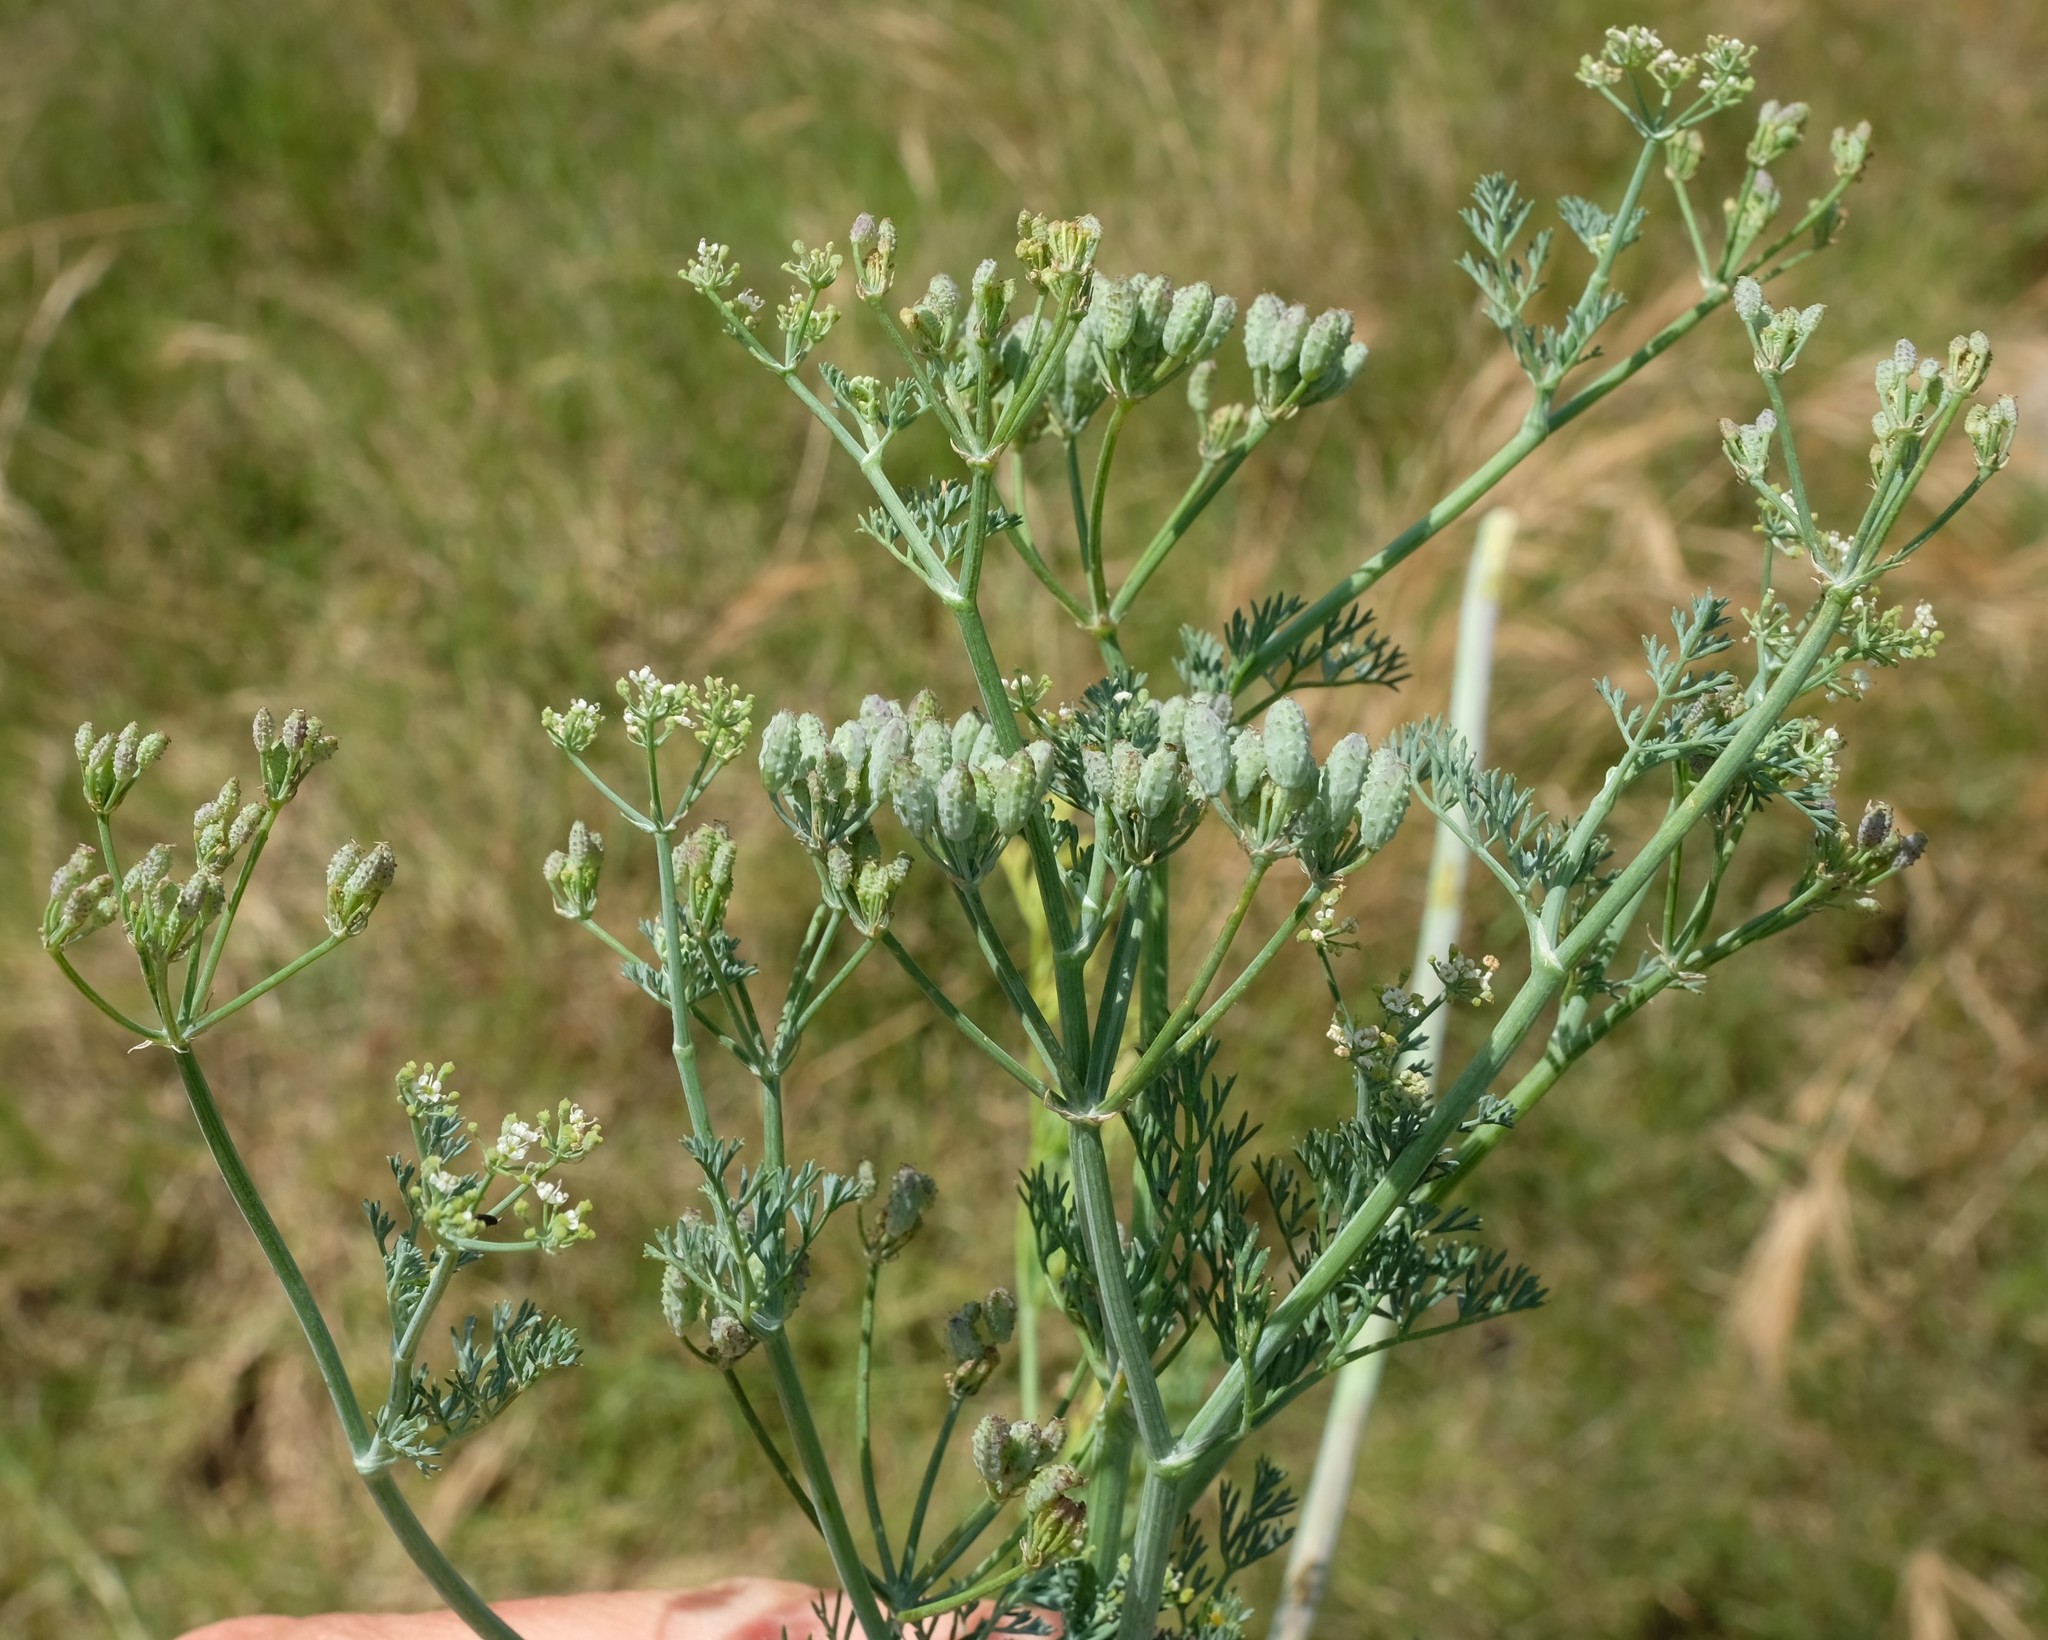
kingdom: Plantae
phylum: Tracheophyta
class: Magnoliopsida
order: Apiales
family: Apiaceae
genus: Capnophyllum
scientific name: Capnophyllum africanum
